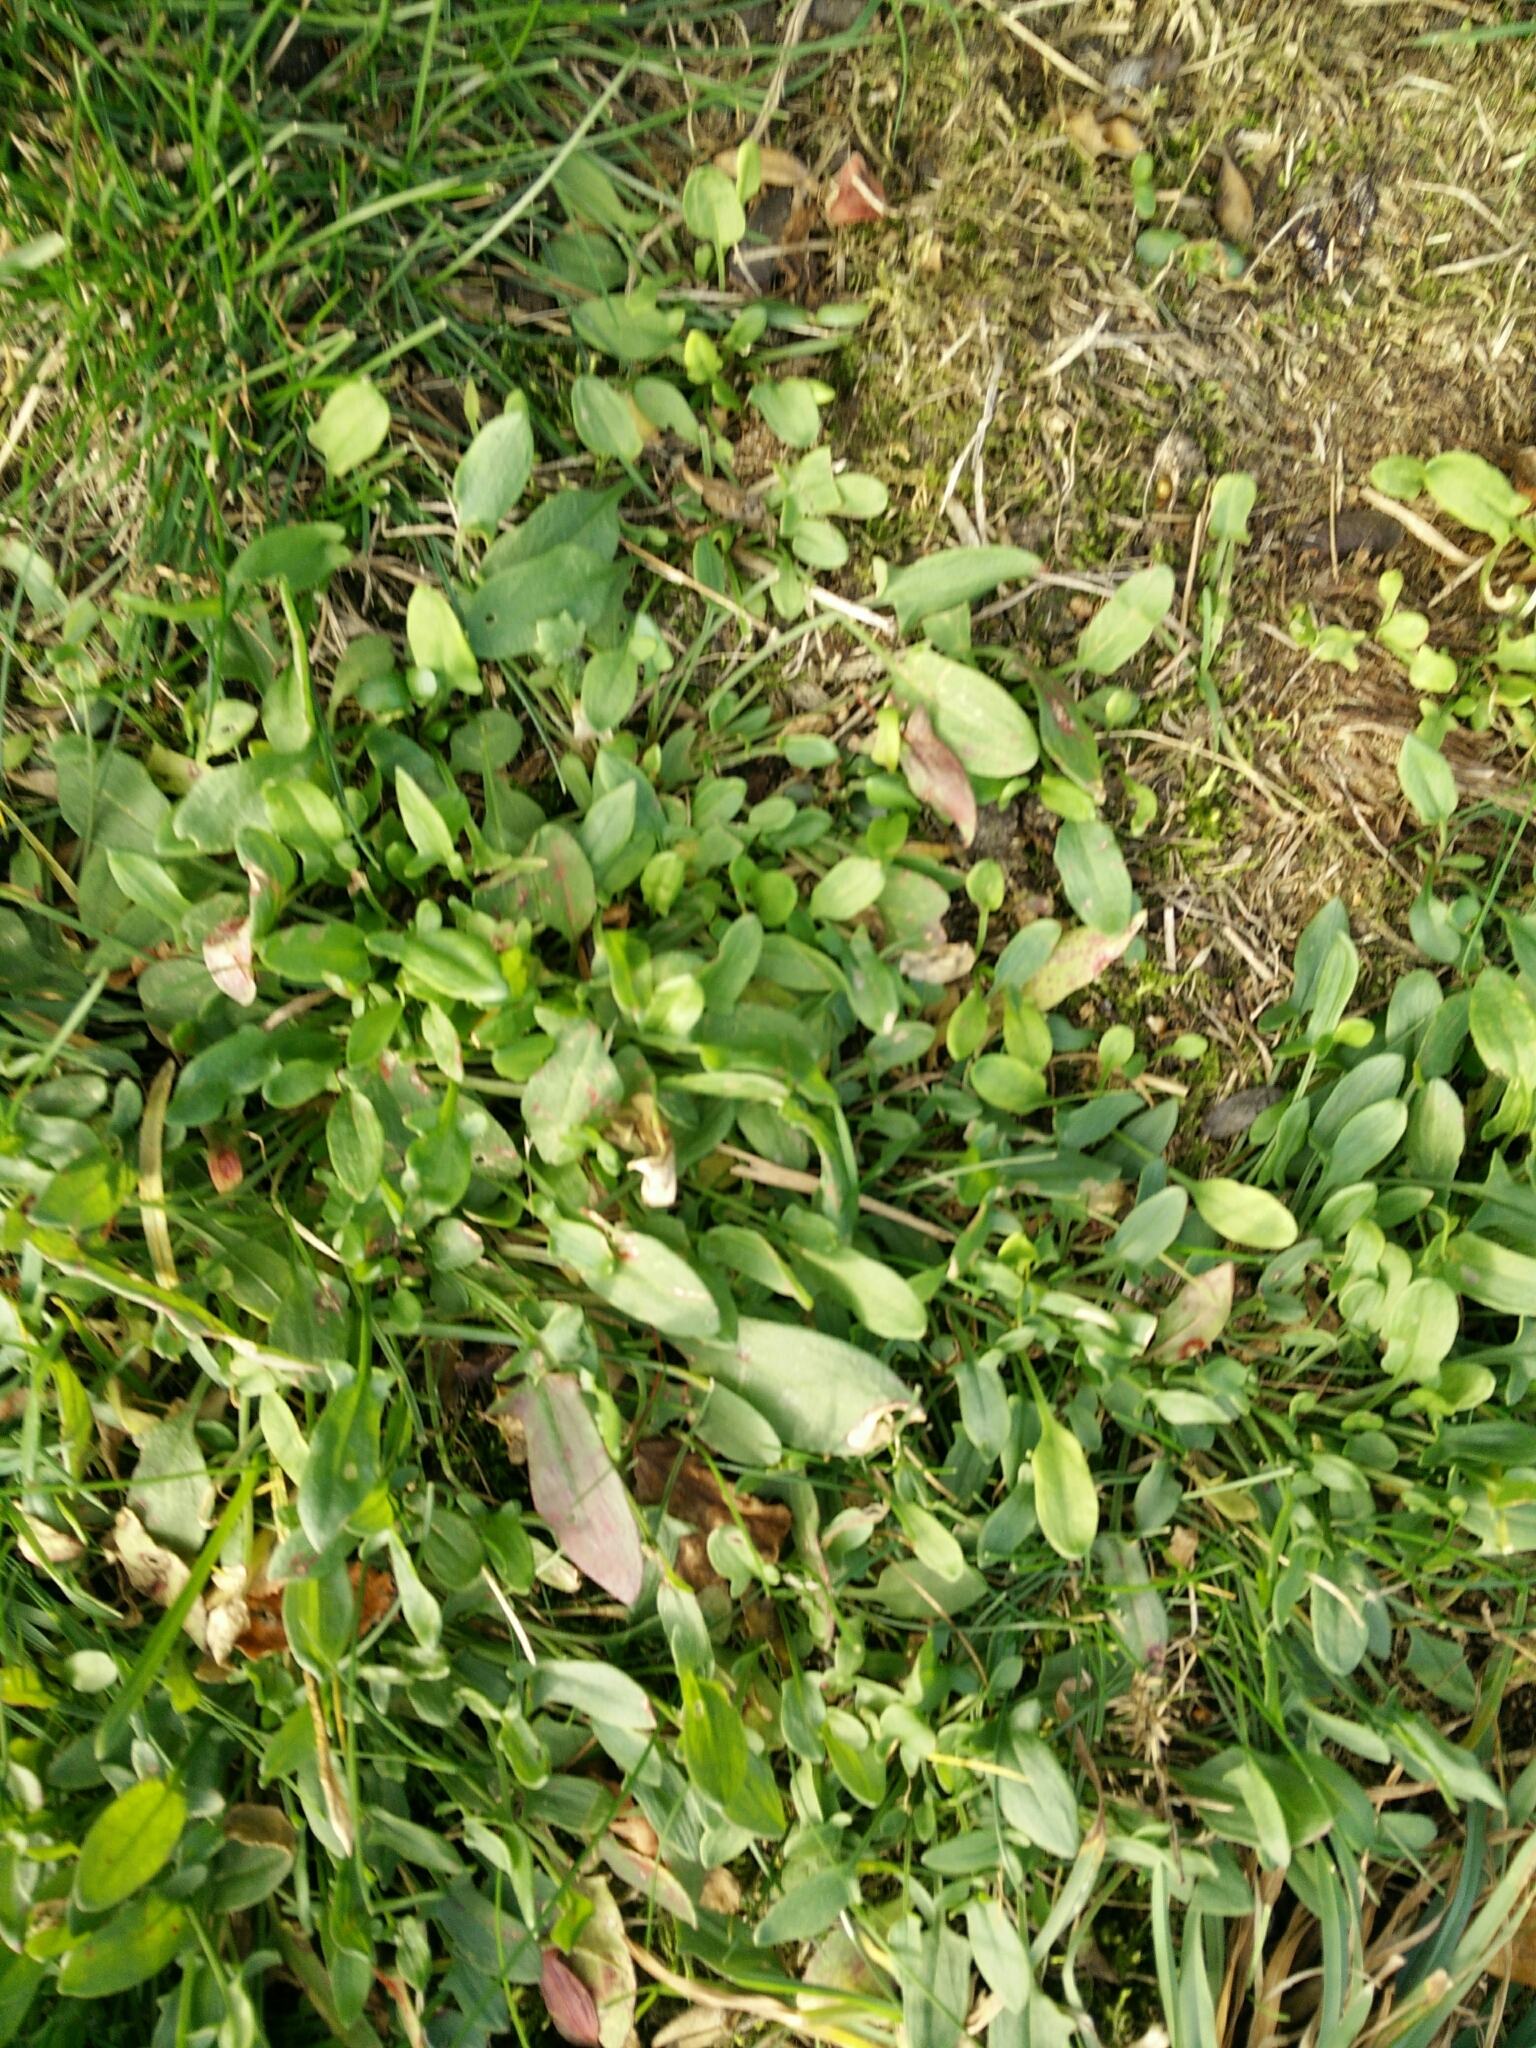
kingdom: Plantae
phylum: Tracheophyta
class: Magnoliopsida
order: Caryophyllales
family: Polygonaceae
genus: Rumex
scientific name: Rumex acetosella
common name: Common sheep sorrel
